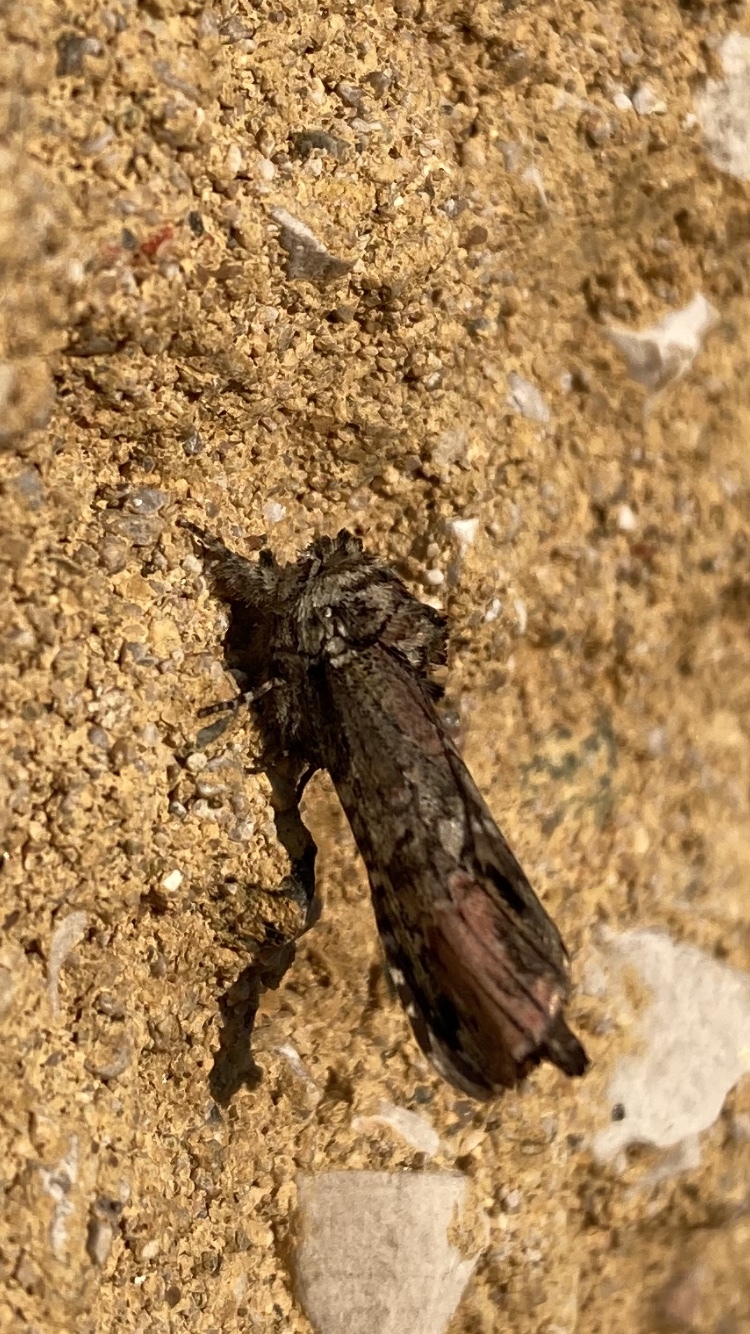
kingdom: Animalia
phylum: Arthropoda
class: Insecta
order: Lepidoptera
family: Notodontidae
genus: Schizura
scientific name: Schizura
